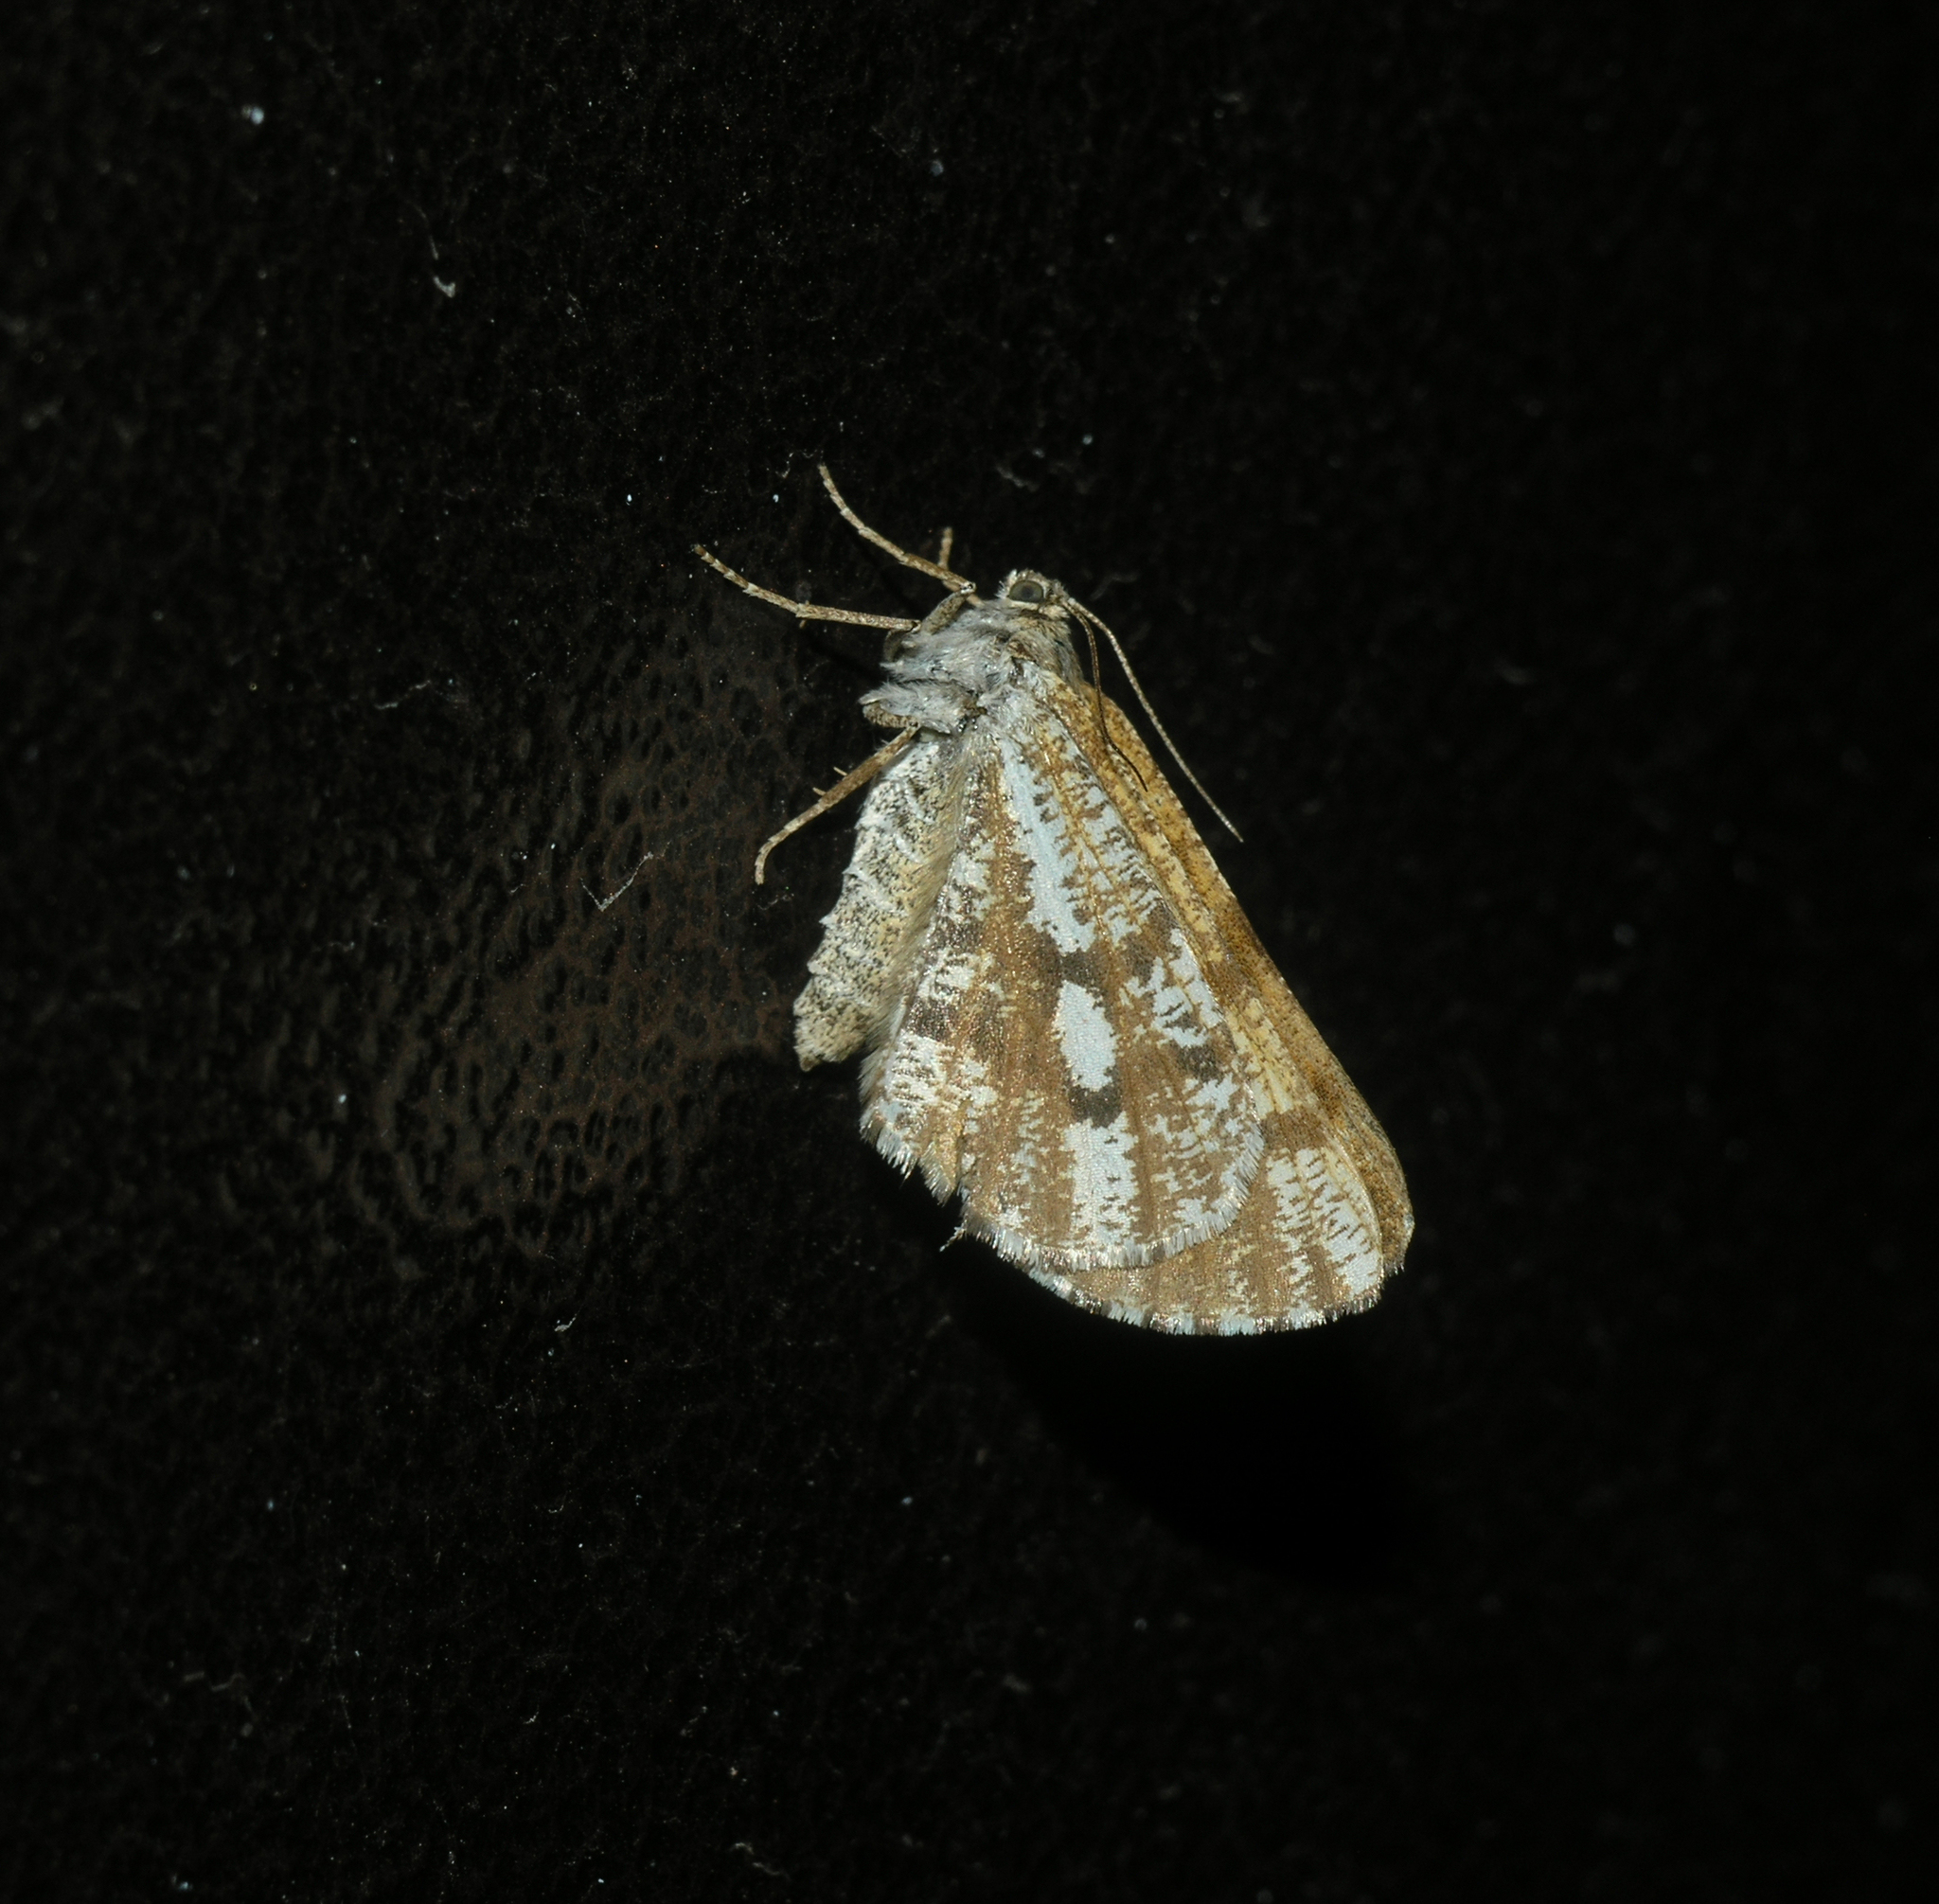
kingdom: Animalia
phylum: Arthropoda
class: Insecta
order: Lepidoptera
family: Geometridae
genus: Bupalus
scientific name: Bupalus piniaria
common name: Bordered white
